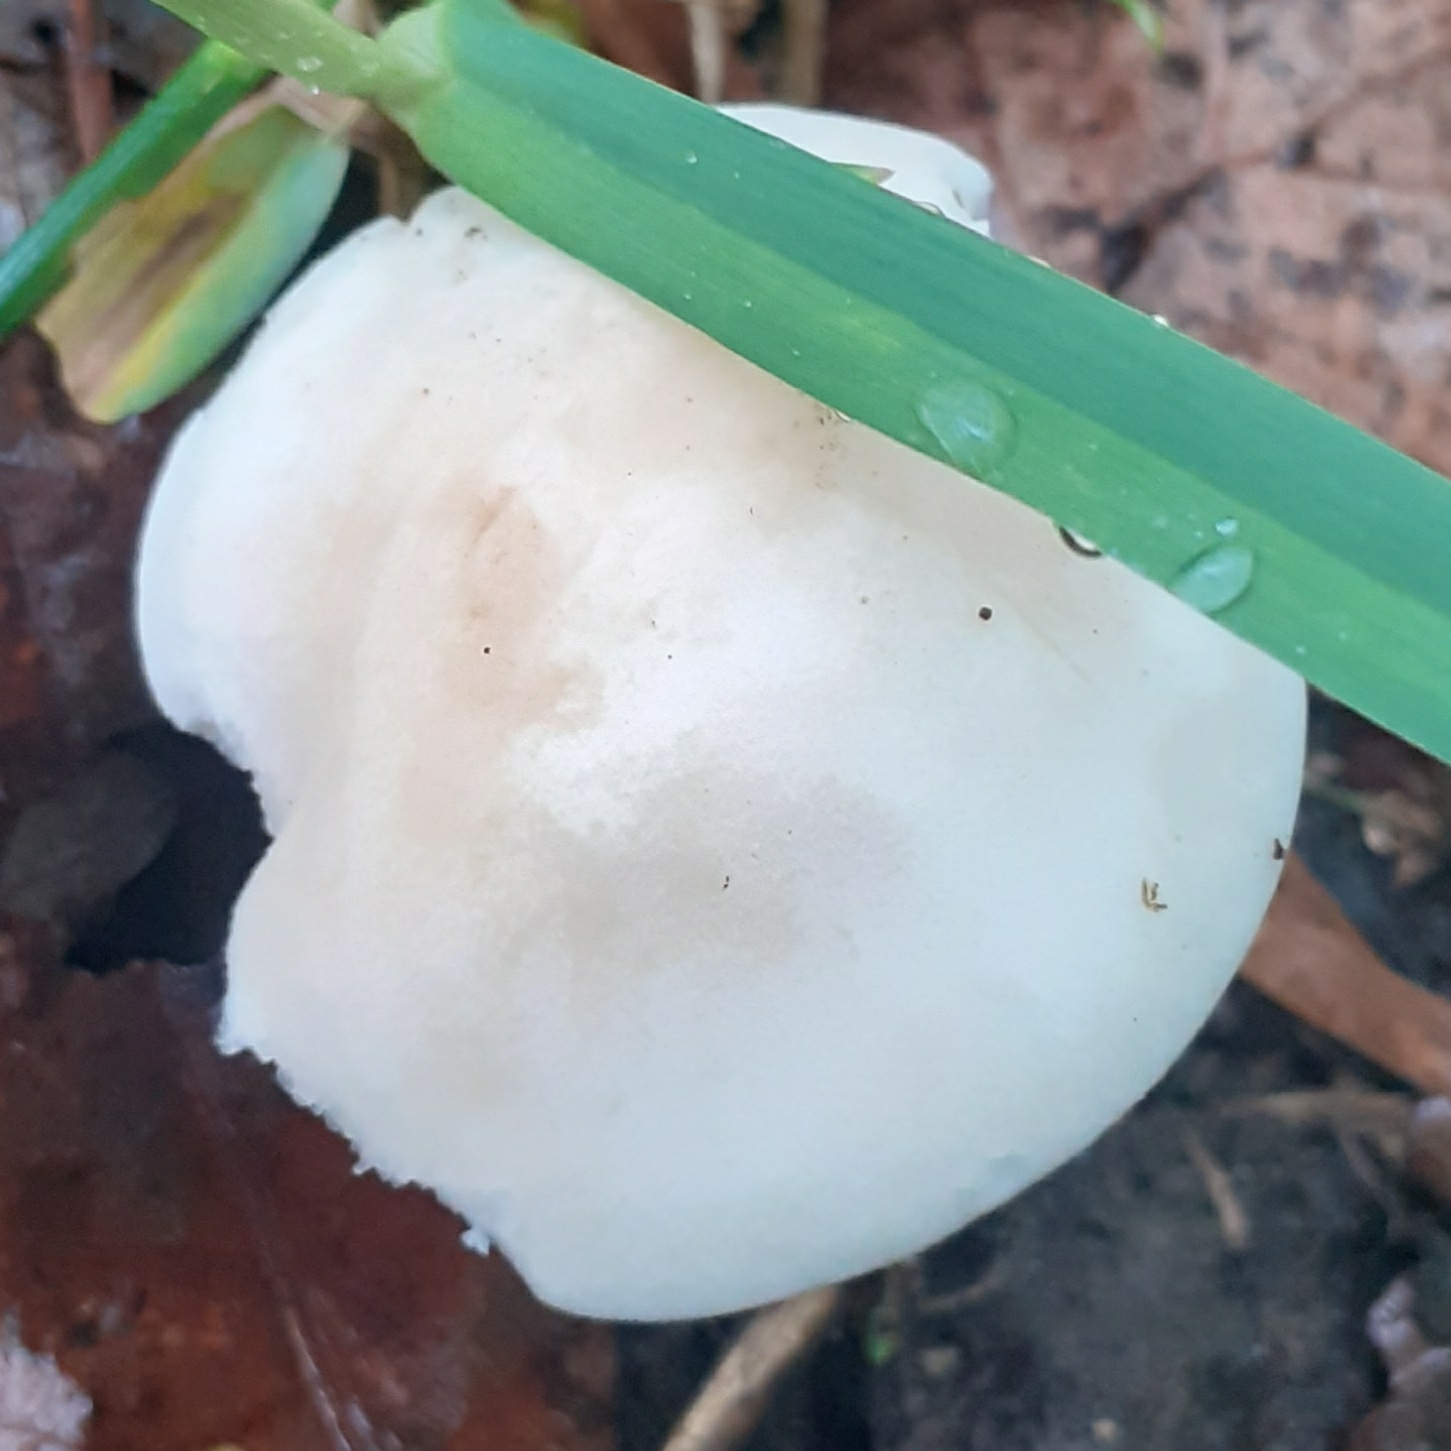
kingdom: Fungi
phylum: Basidiomycota
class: Agaricomycetes
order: Agaricales
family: Lyophyllaceae
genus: Calocybe
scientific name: Calocybe gambosa
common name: St. george's mushroom
